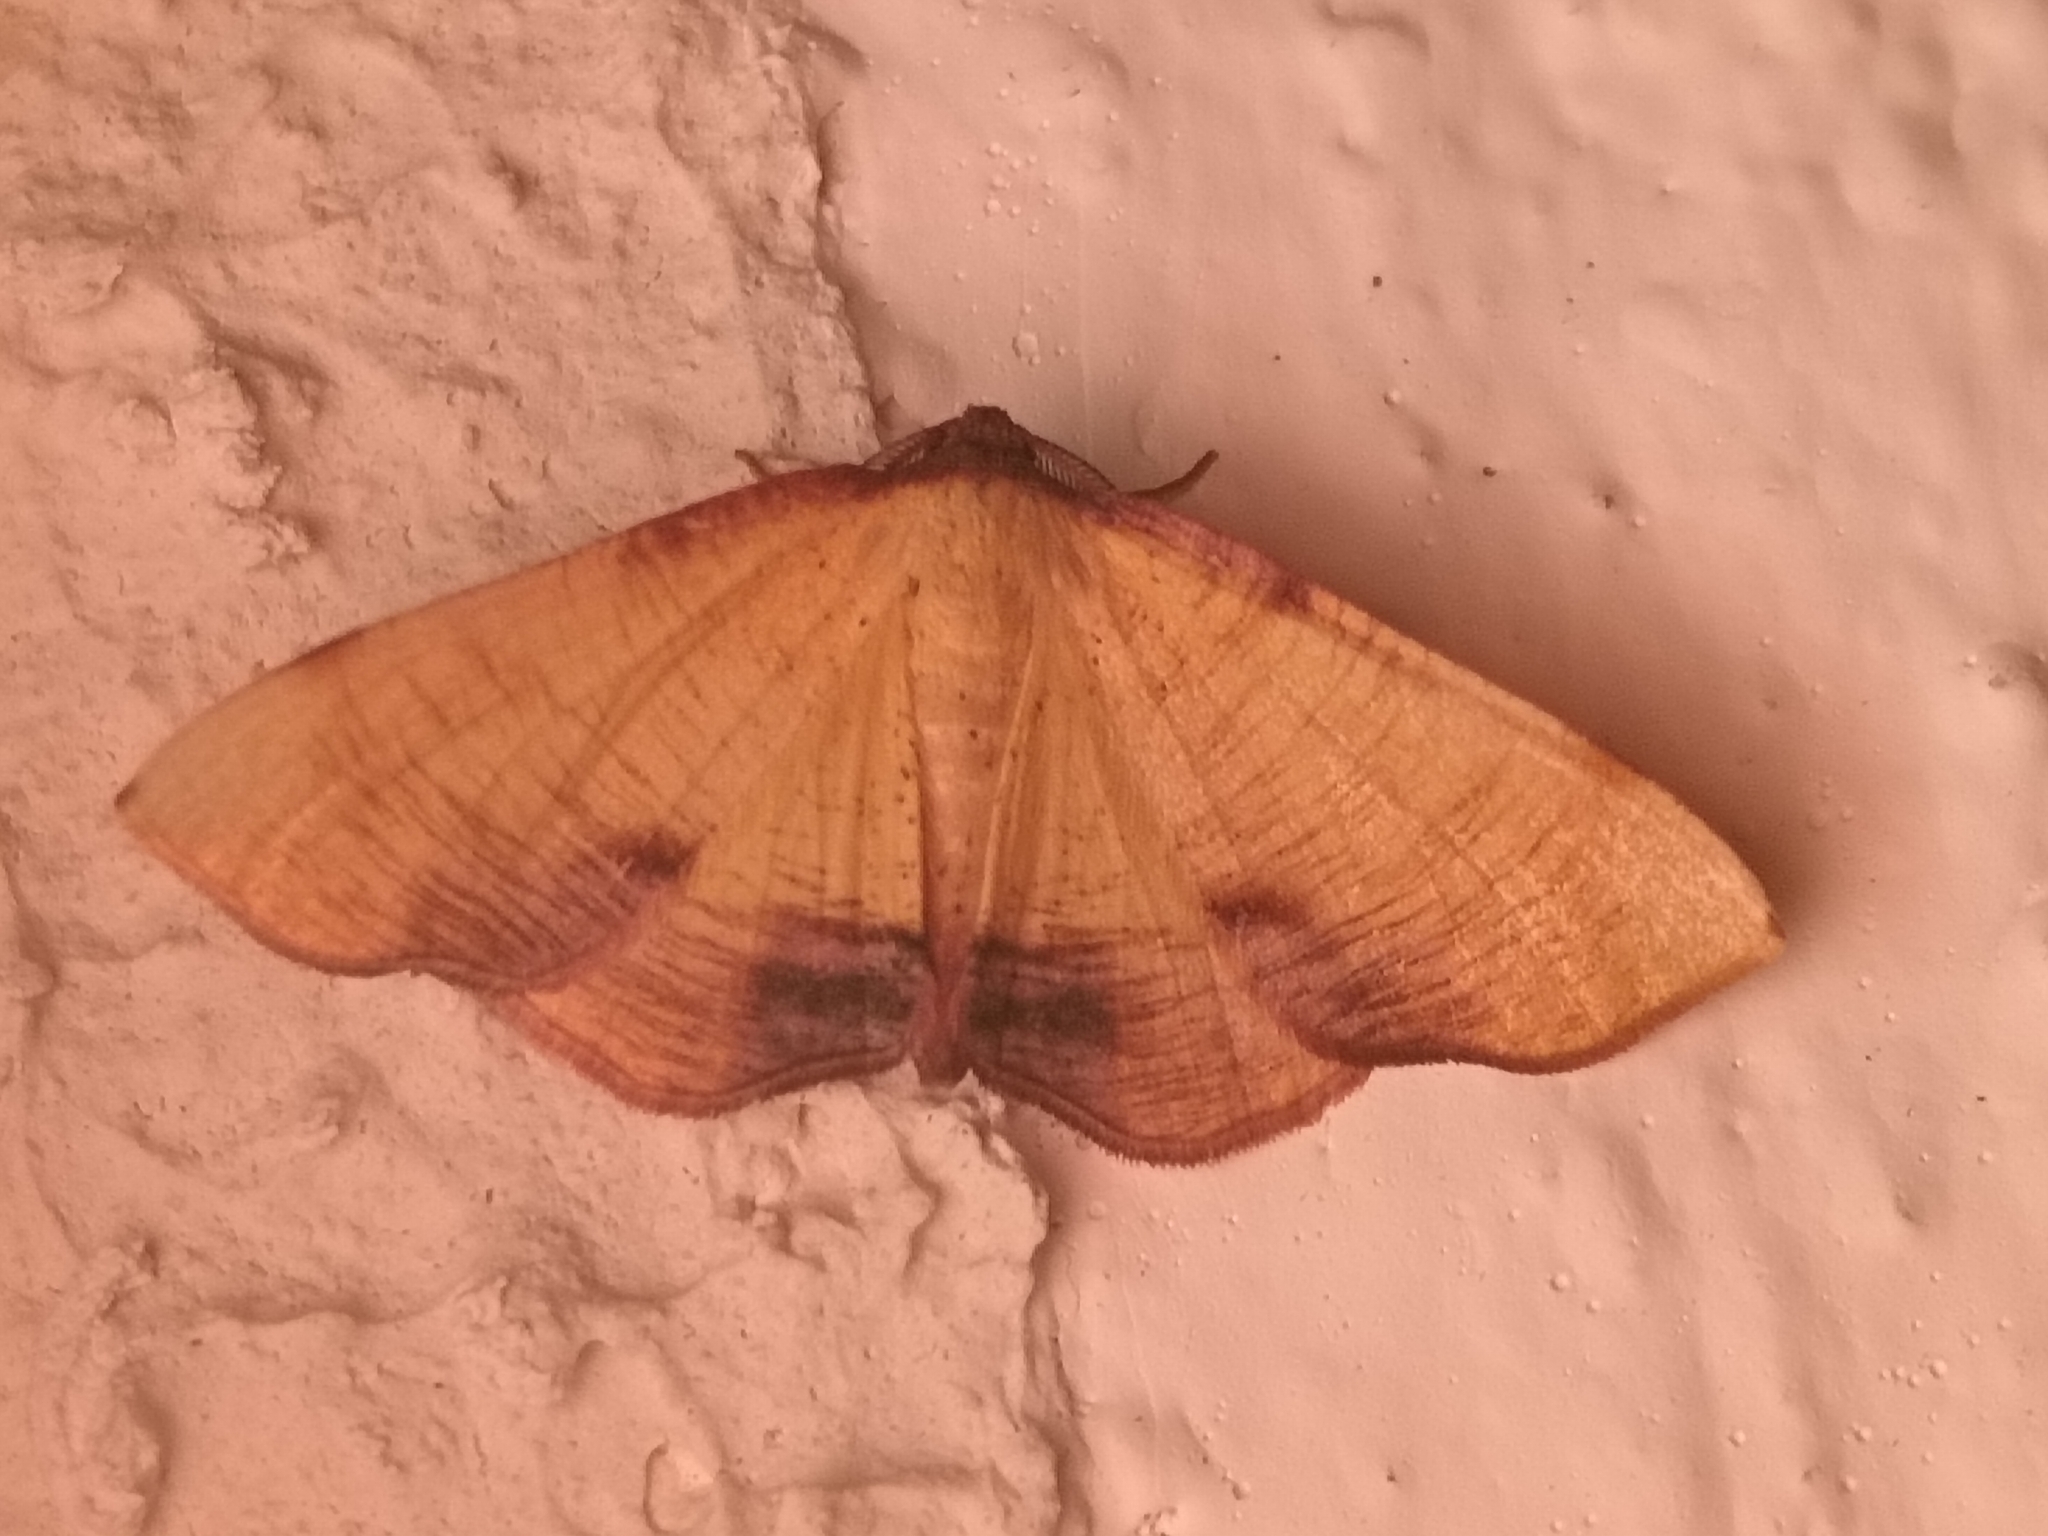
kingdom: Animalia
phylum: Arthropoda
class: Insecta
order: Lepidoptera
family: Geometridae
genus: Plagodis
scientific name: Plagodis dolabraria
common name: Scorched wing
